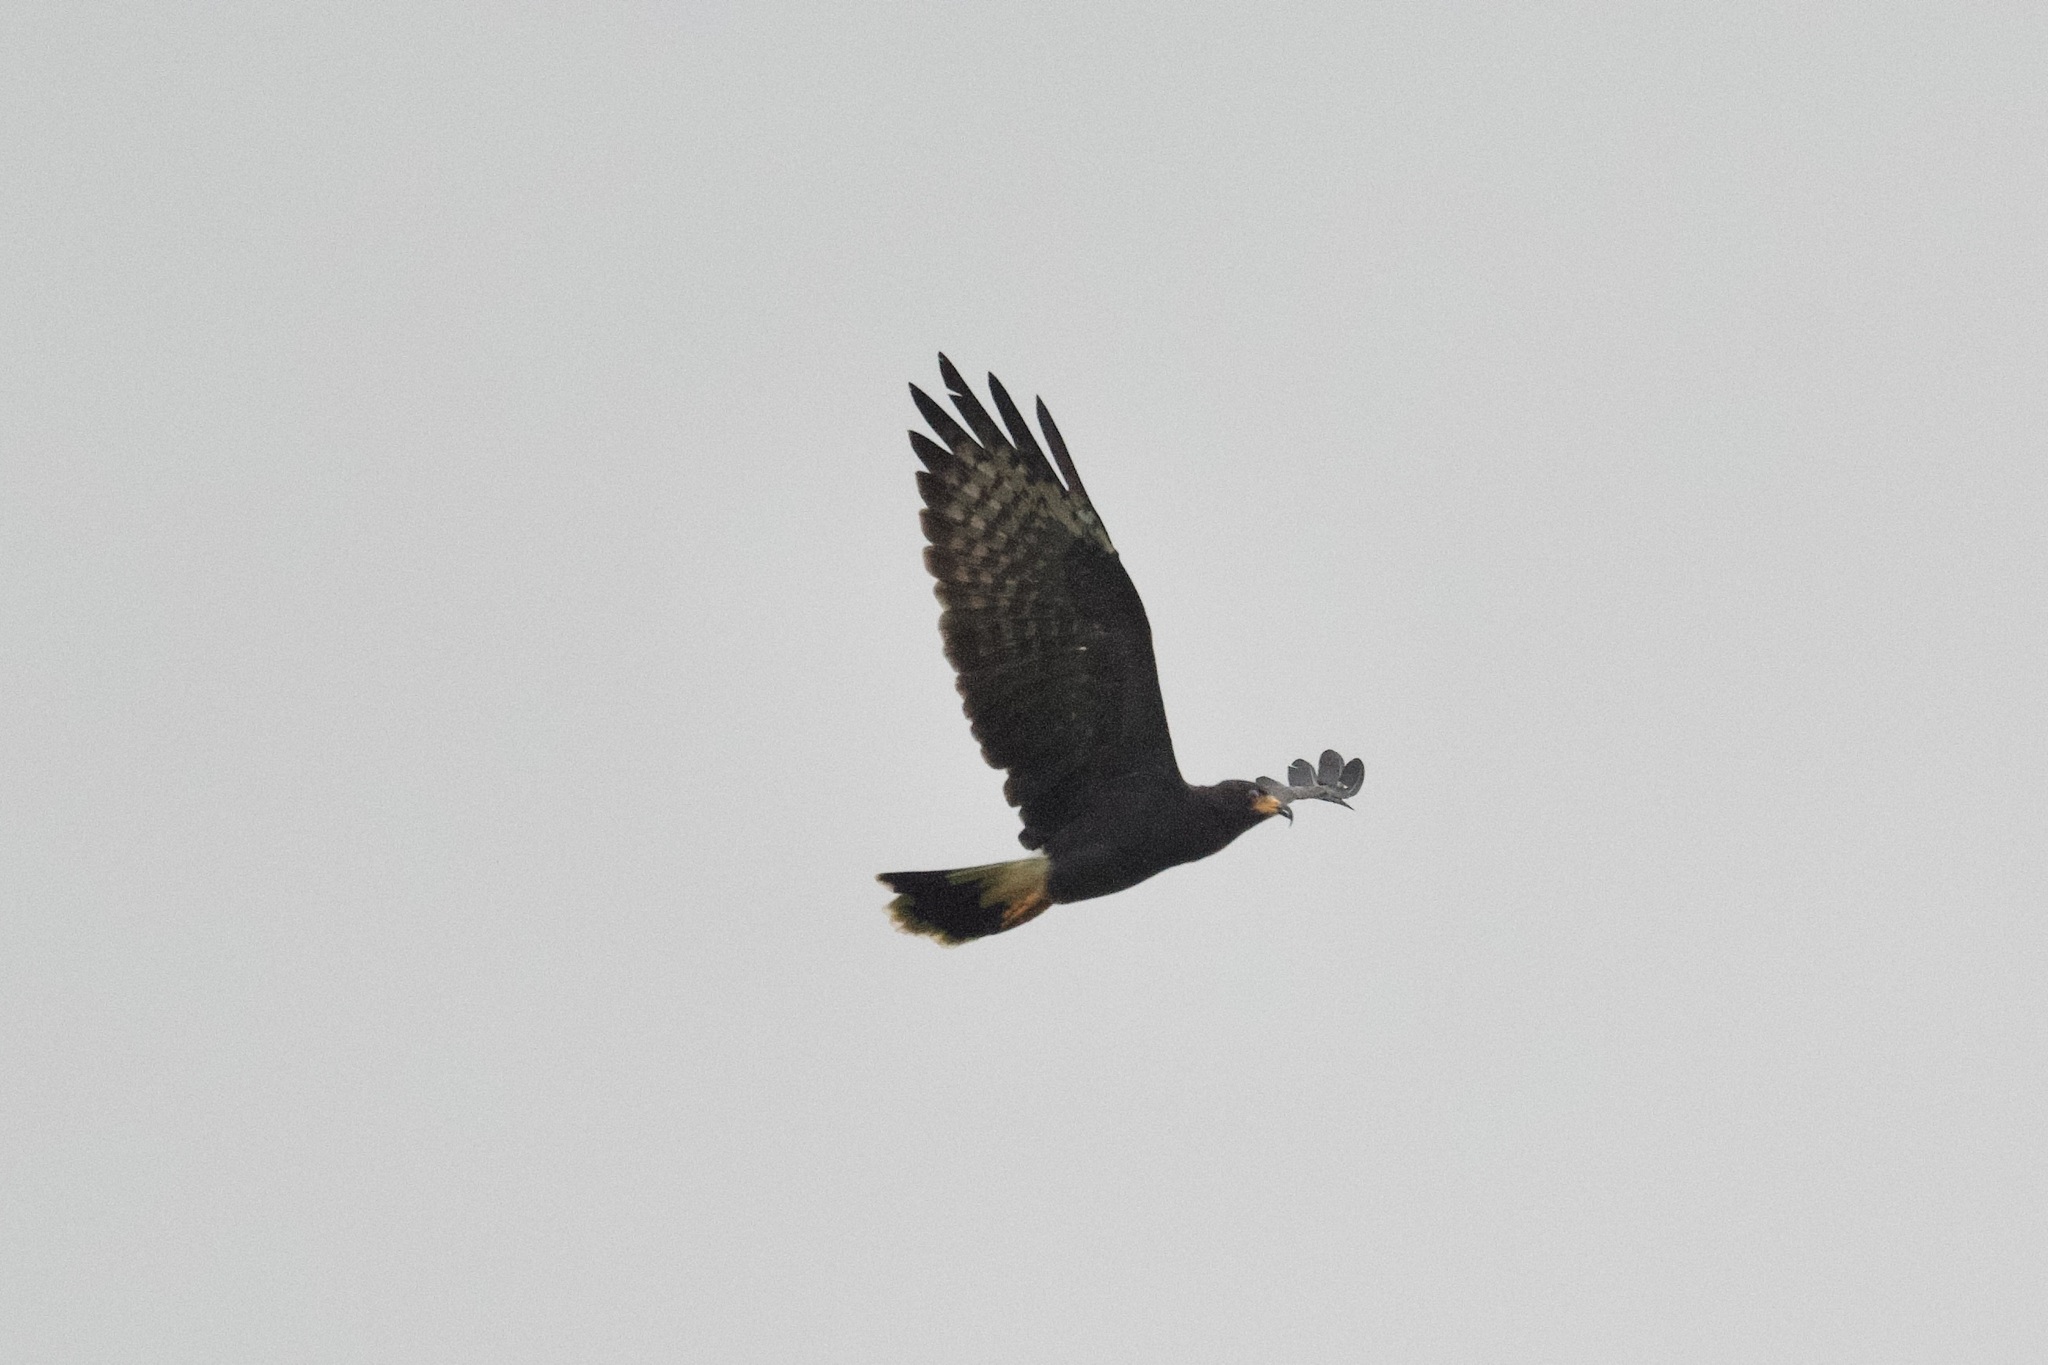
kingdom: Animalia
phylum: Chordata
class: Aves
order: Accipitriformes
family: Accipitridae
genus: Rostrhamus
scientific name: Rostrhamus sociabilis
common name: Snail kite
